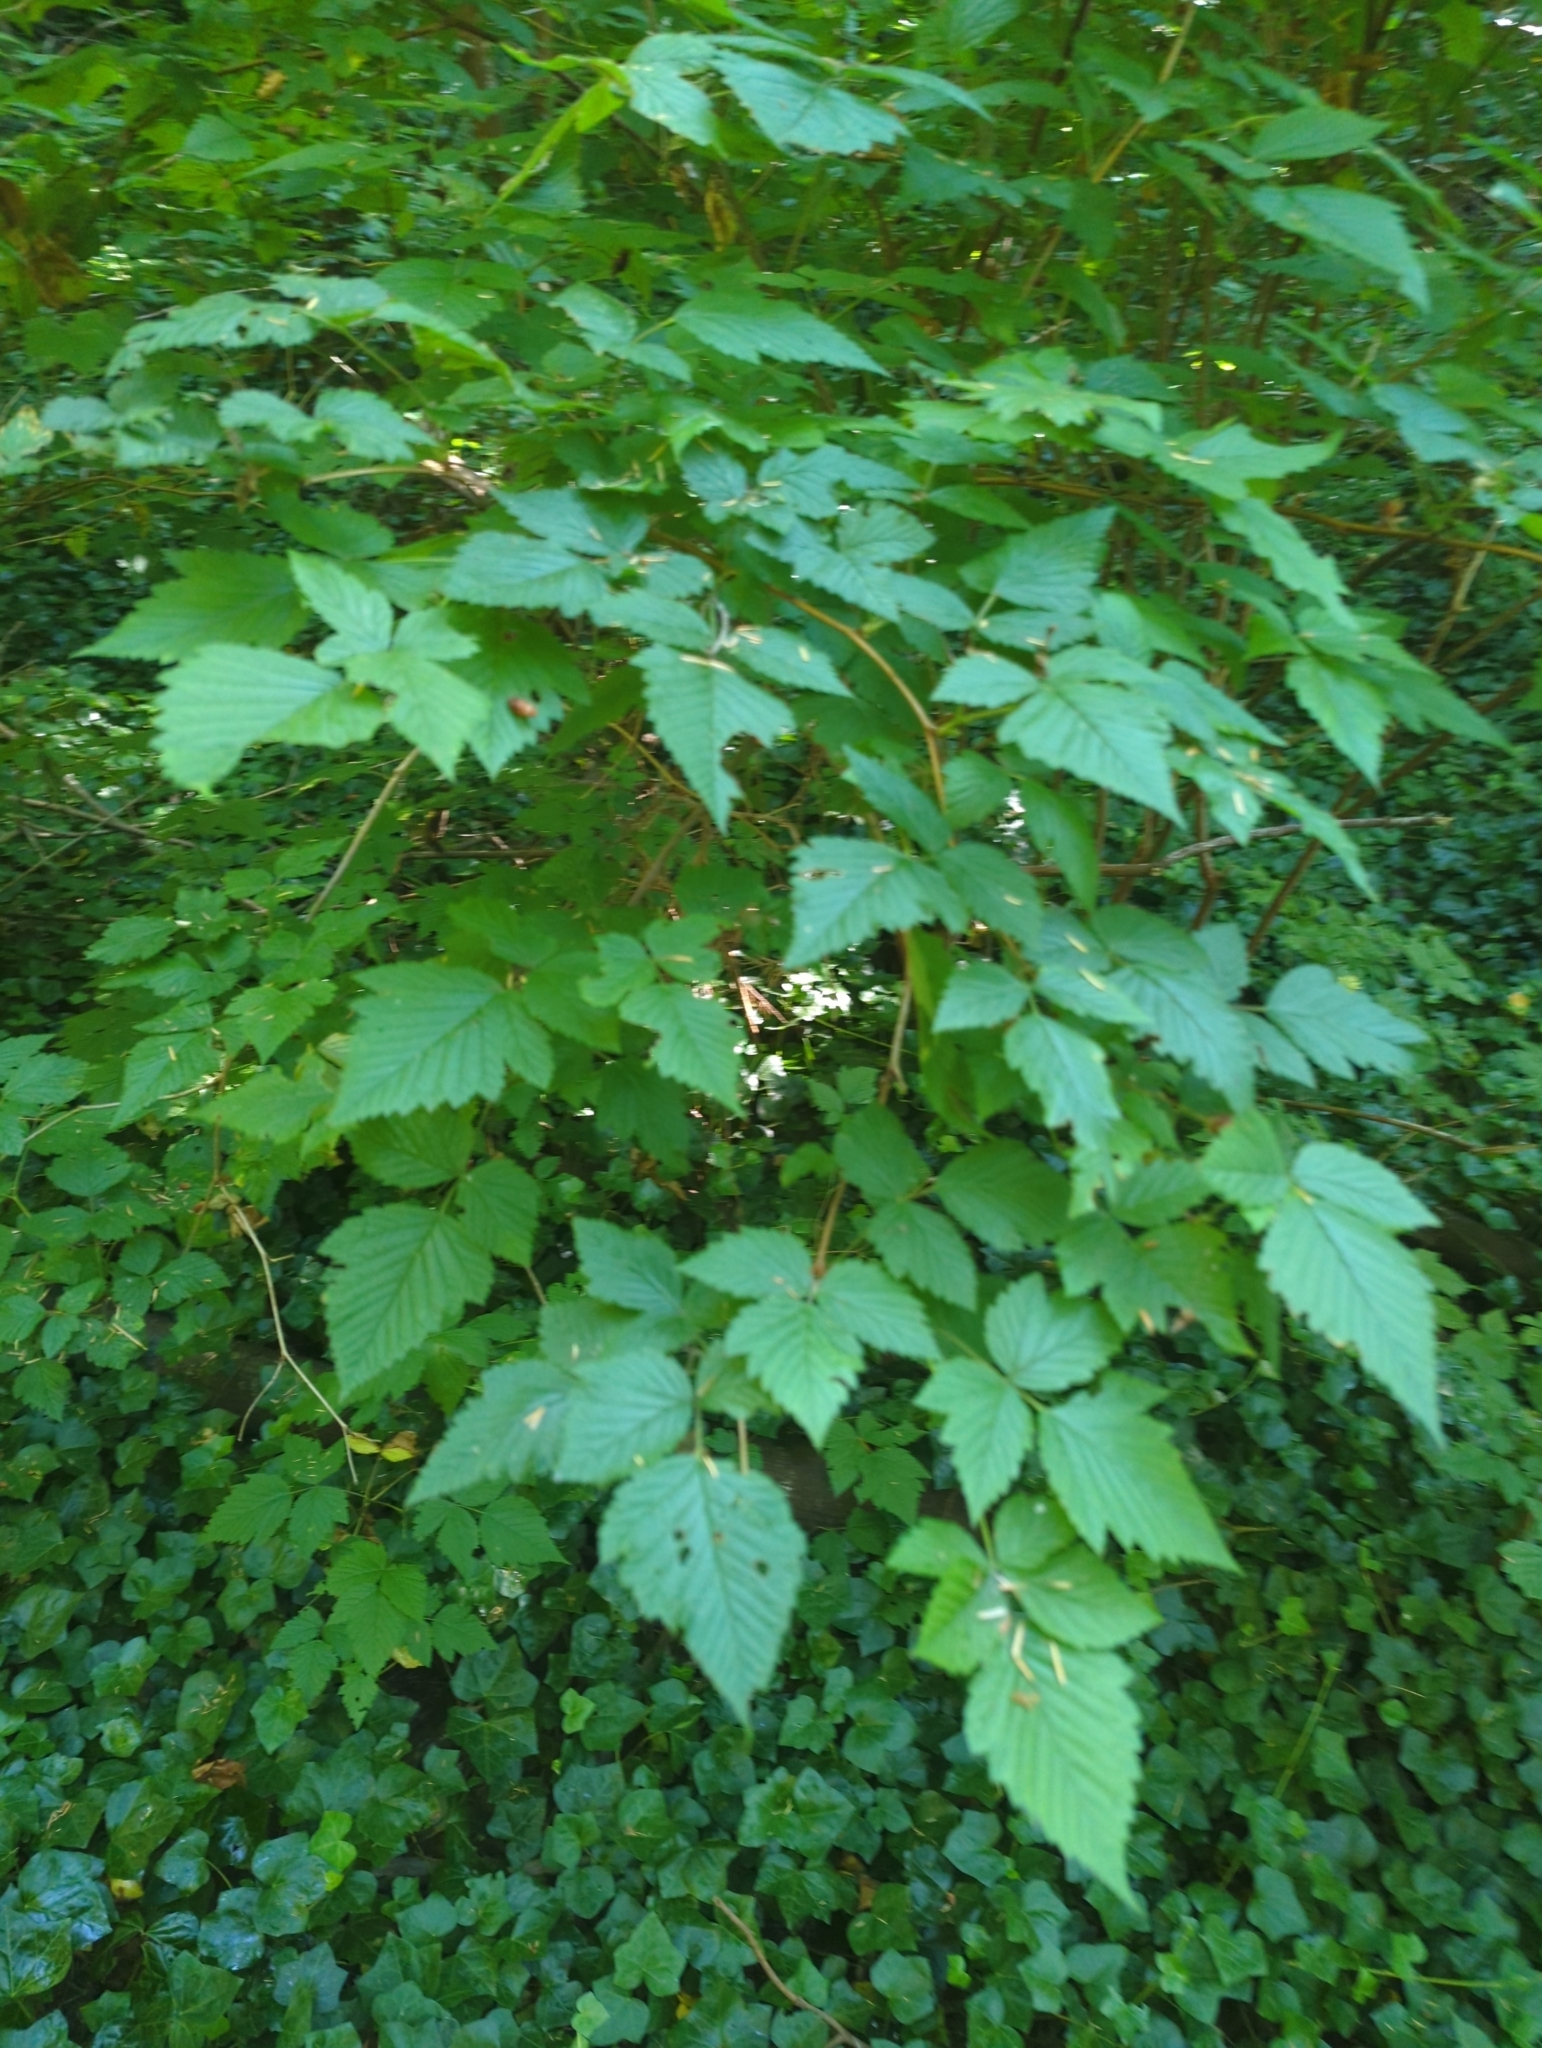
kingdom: Plantae
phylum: Tracheophyta
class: Magnoliopsida
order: Rosales
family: Rosaceae
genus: Rubus
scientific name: Rubus spectabilis
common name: Salmonberry
